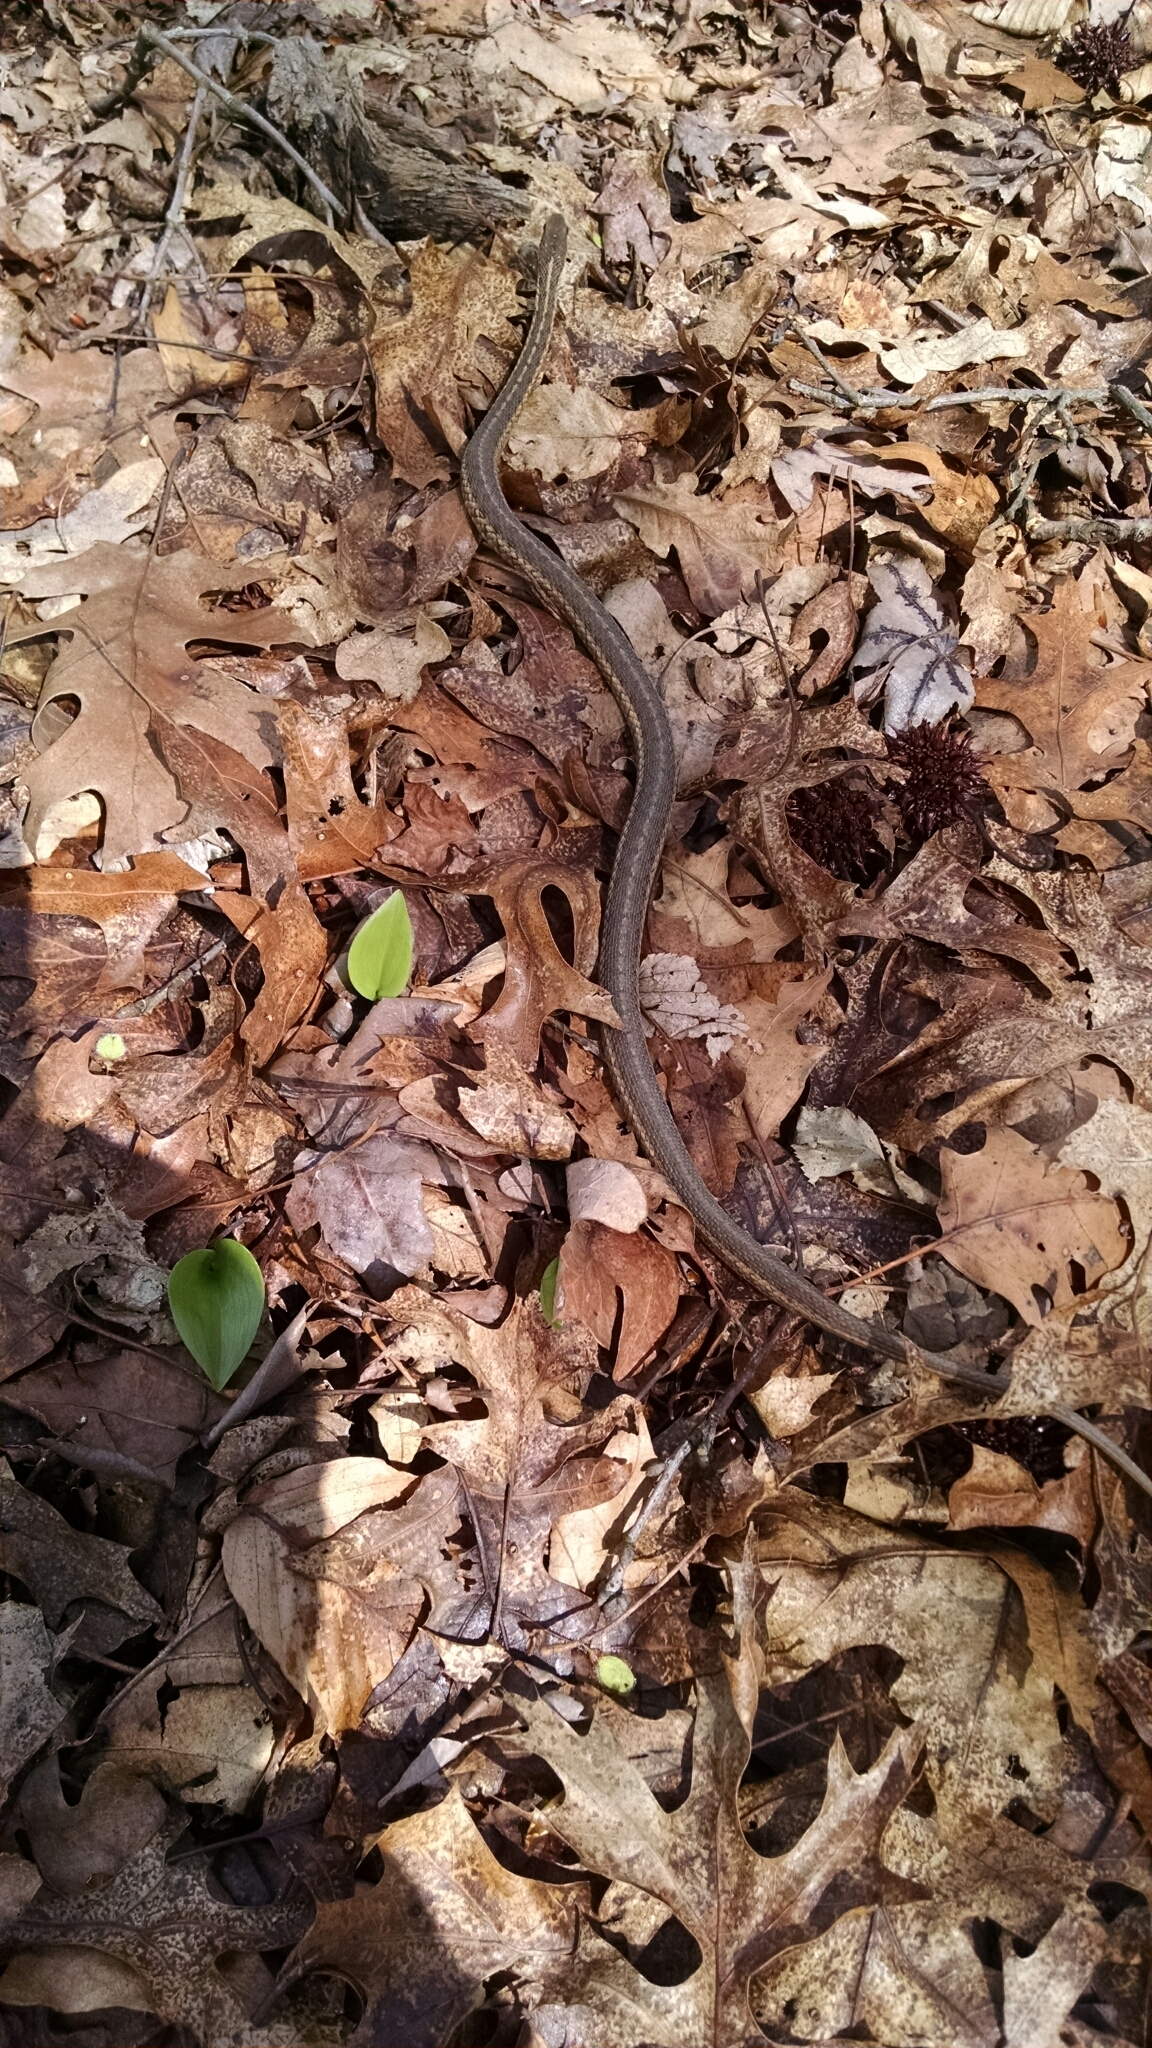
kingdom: Animalia
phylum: Chordata
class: Squamata
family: Colubridae
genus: Thamnophis
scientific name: Thamnophis sirtalis
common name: Common garter snake
